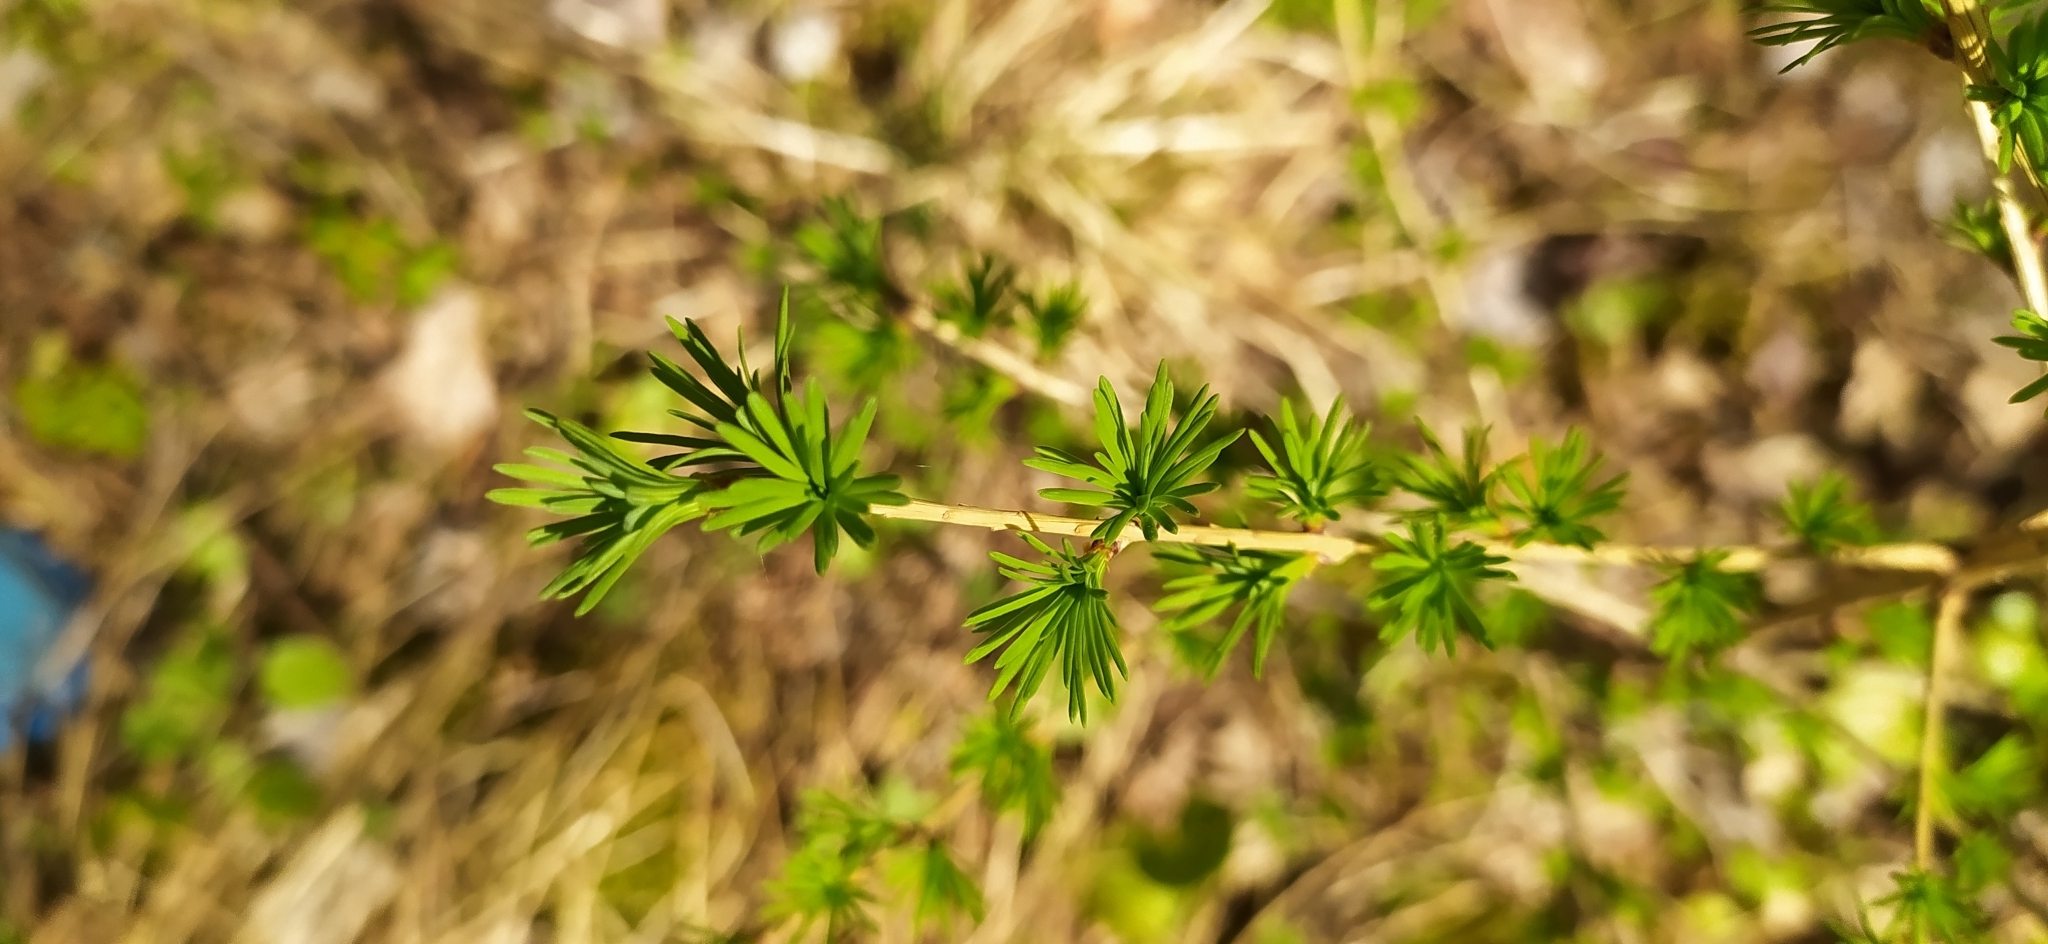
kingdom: Plantae
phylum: Tracheophyta
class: Pinopsida
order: Pinales
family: Pinaceae
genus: Larix
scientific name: Larix sibirica
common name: Siberian larch
